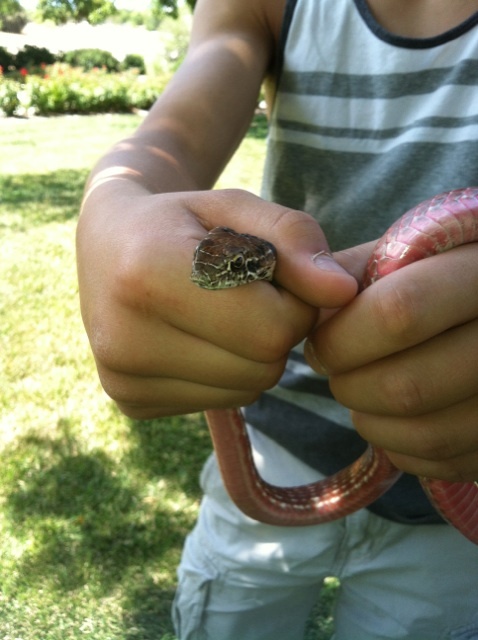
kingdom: Animalia
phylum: Chordata
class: Squamata
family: Colubridae
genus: Masticophis
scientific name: Masticophis flagellum
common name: Coachwhip
